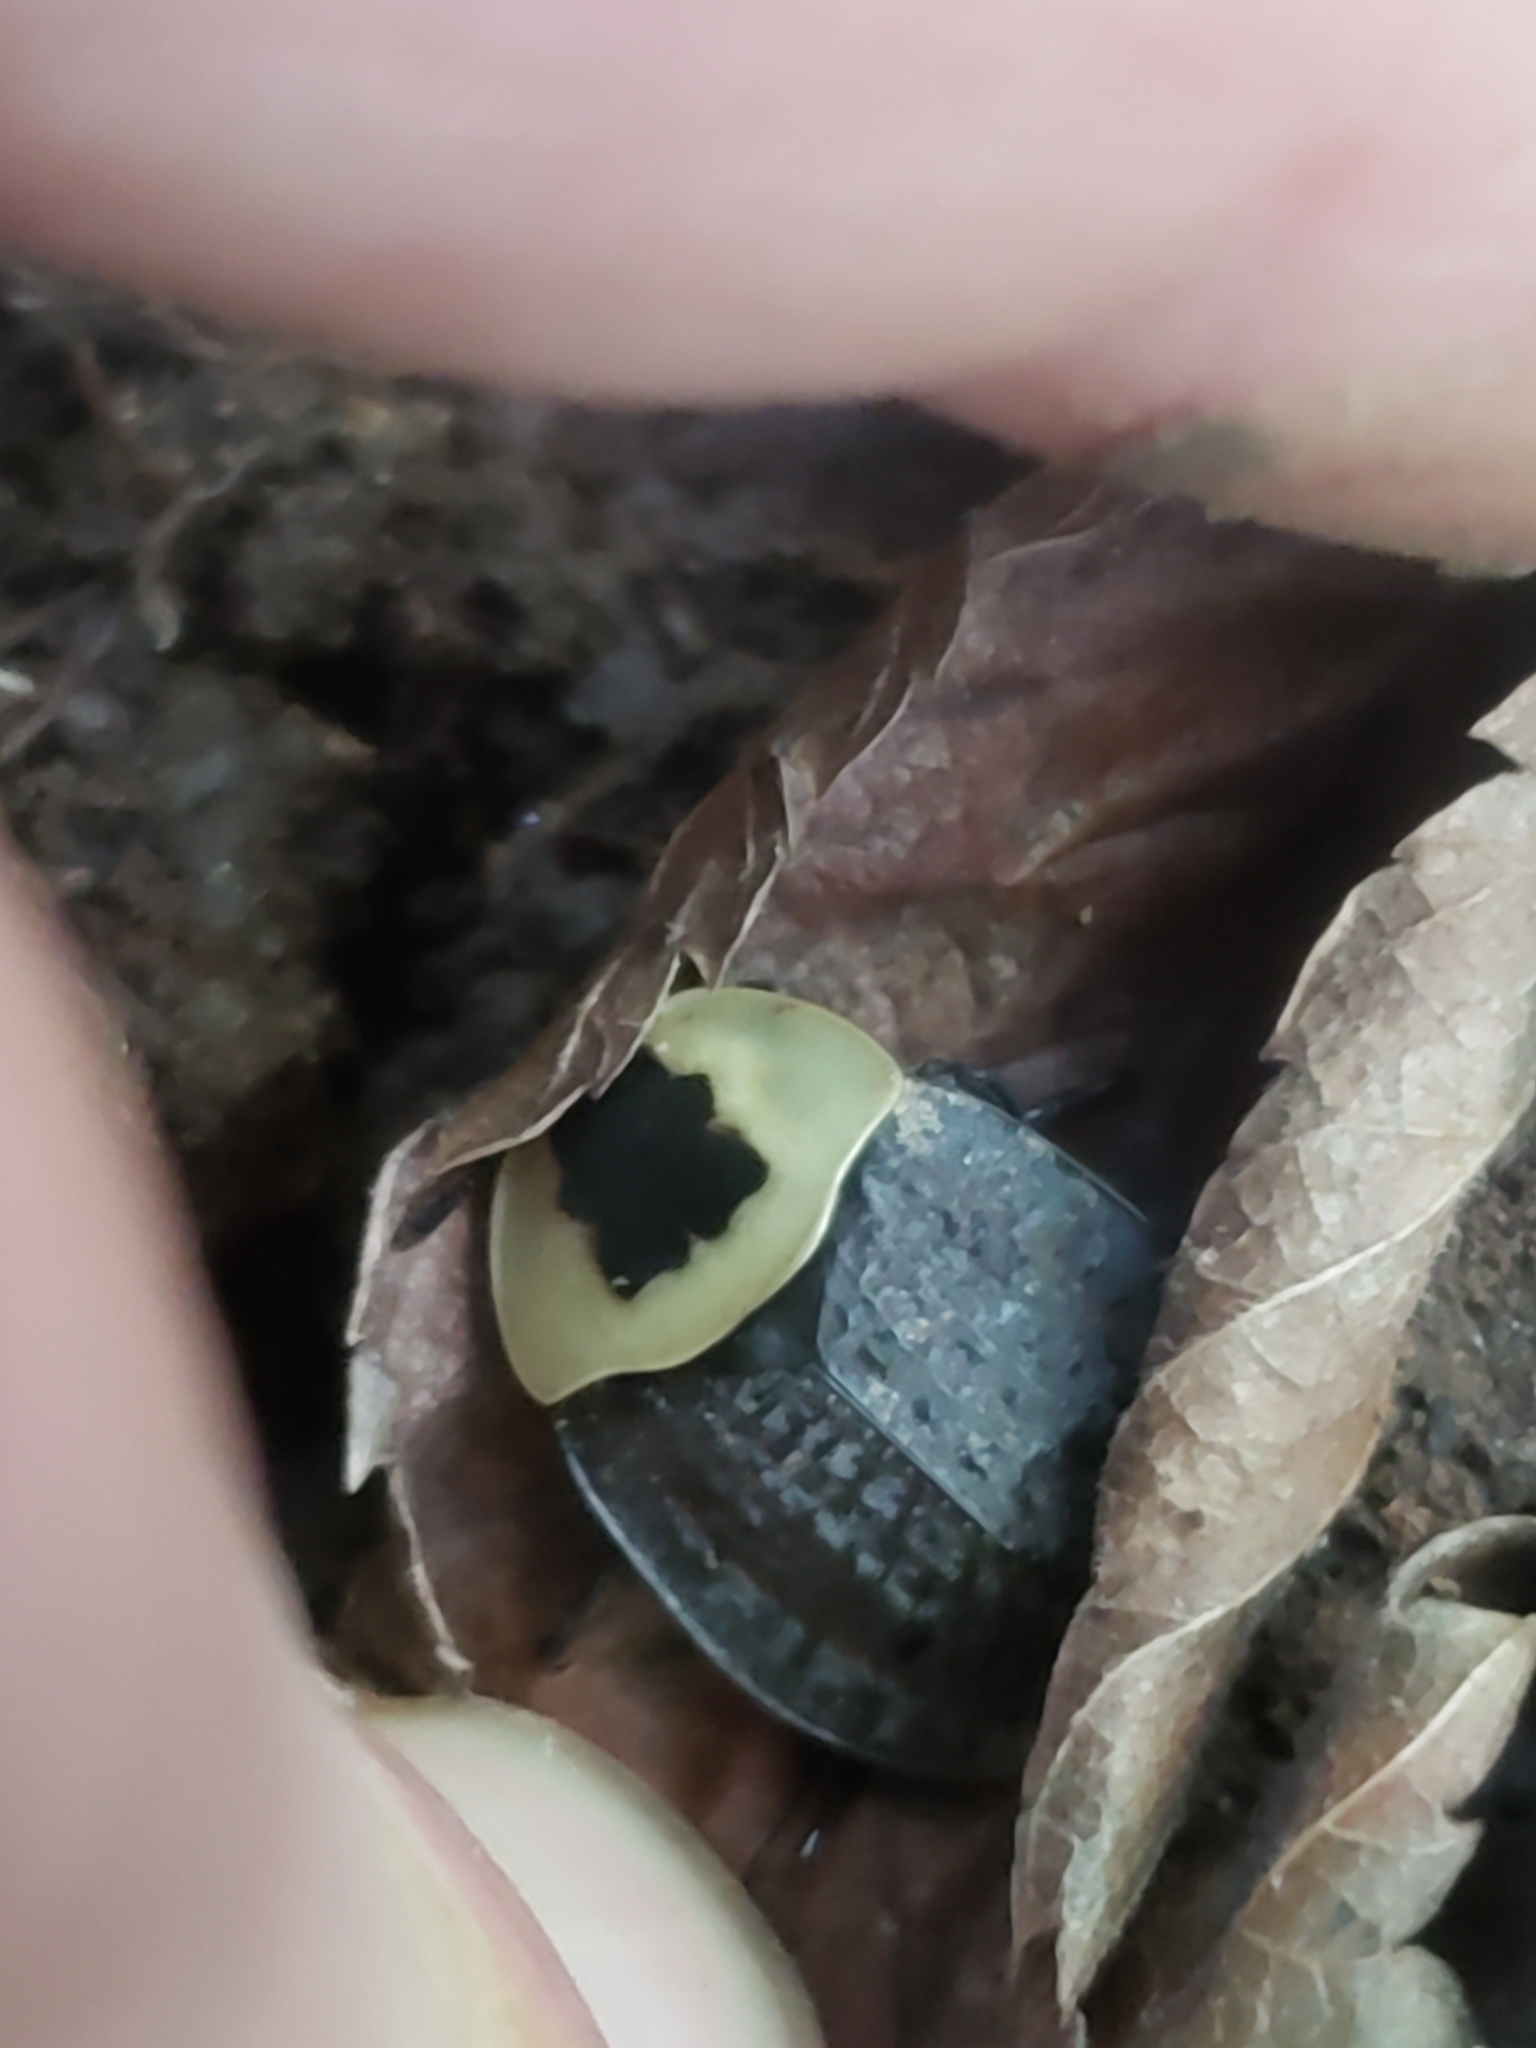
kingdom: Animalia
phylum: Arthropoda
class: Insecta
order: Coleoptera
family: Staphylinidae
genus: Necrophila
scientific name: Necrophila americana
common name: American carrion beetle
